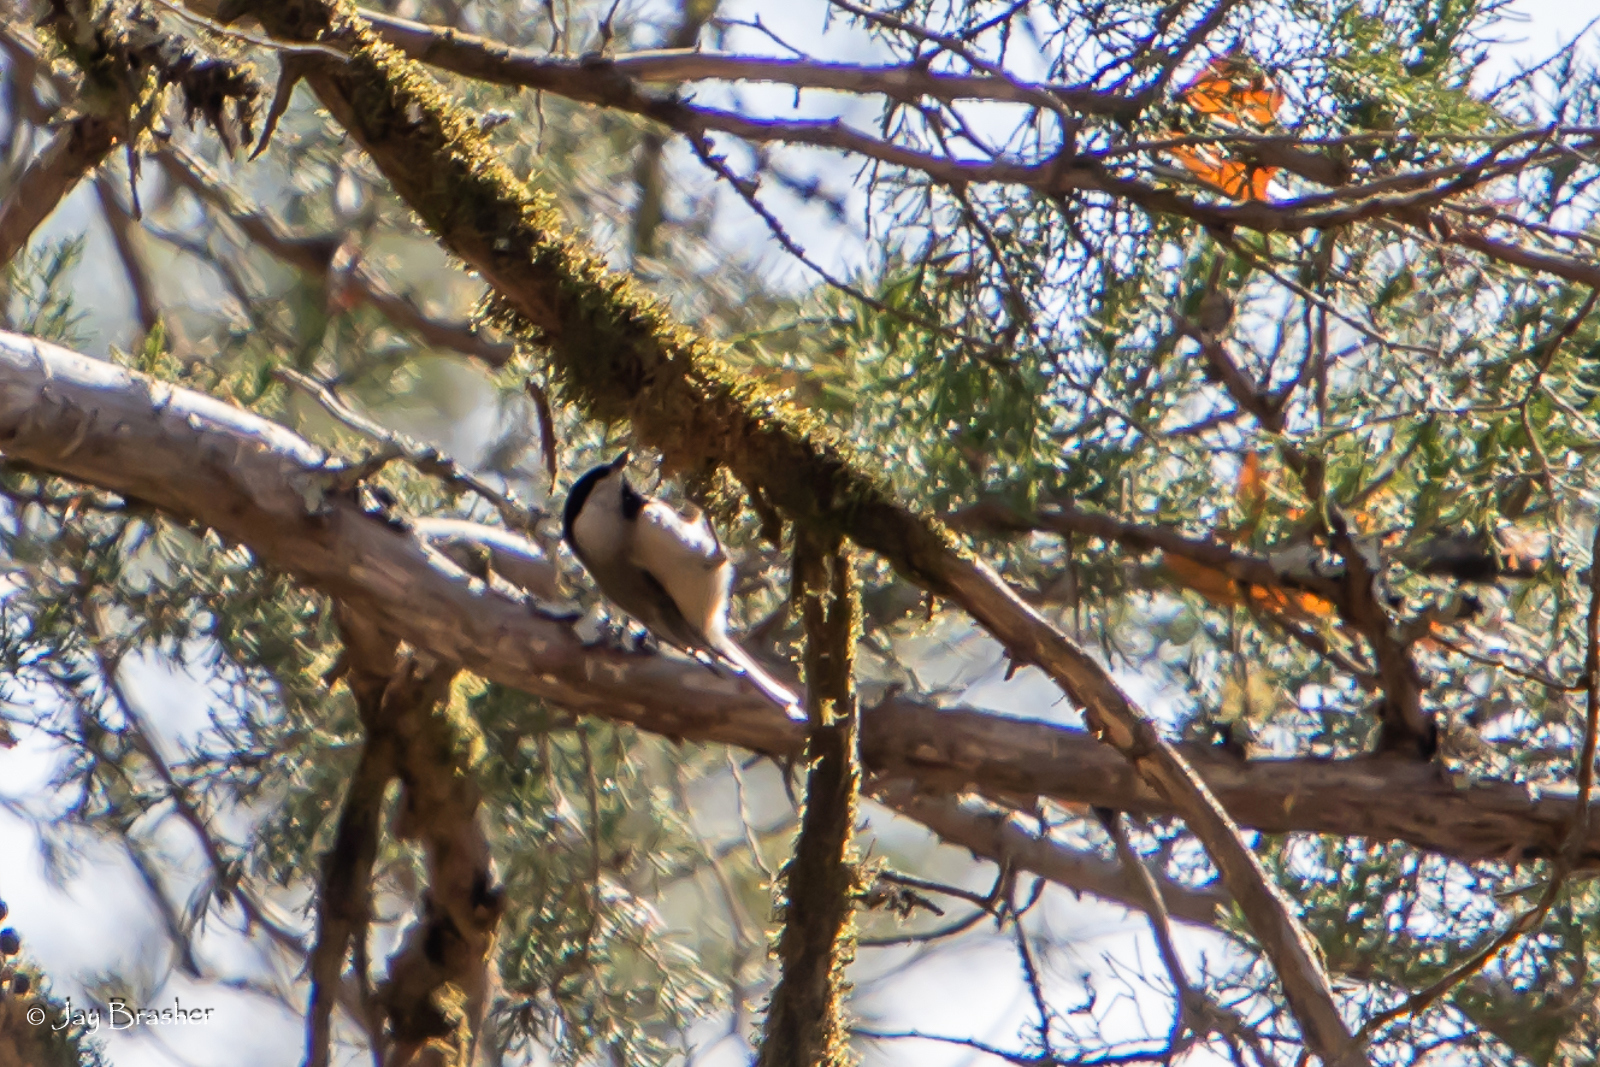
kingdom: Animalia
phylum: Chordata
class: Aves
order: Passeriformes
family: Paridae
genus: Poecile
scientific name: Poecile carolinensis
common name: Carolina chickadee
